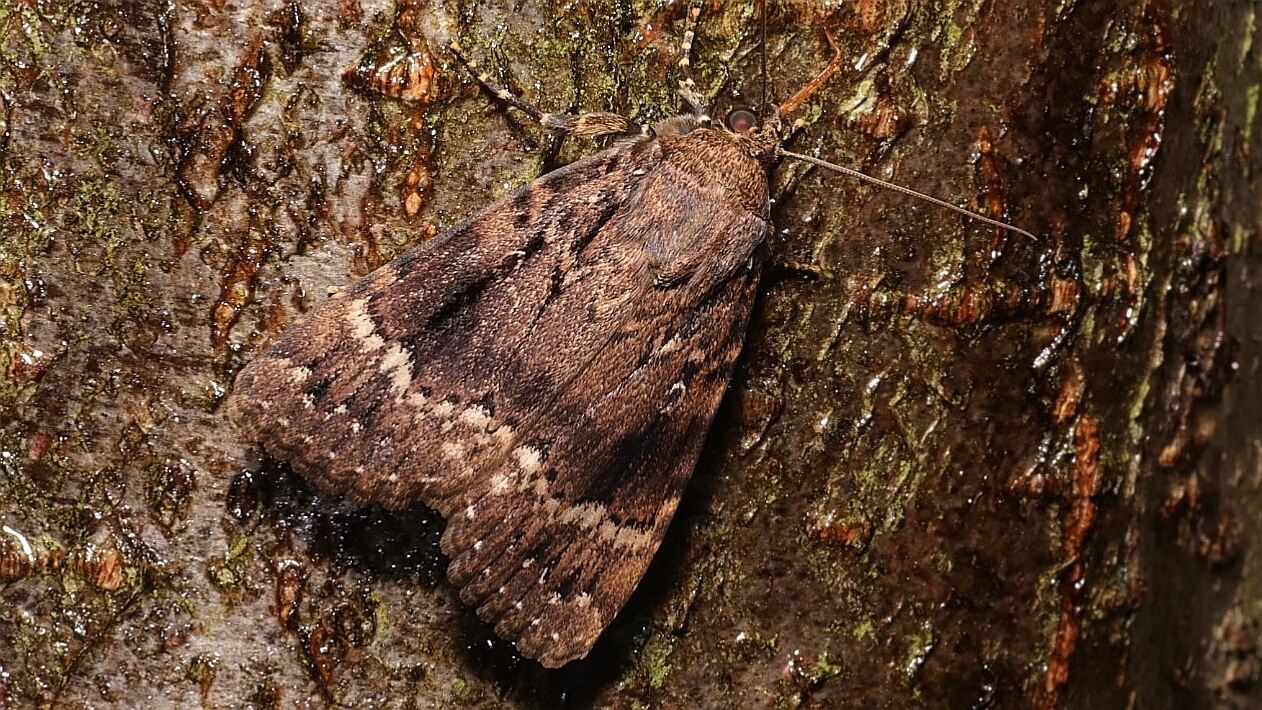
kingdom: Animalia
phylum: Arthropoda
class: Insecta
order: Lepidoptera
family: Noctuidae
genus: Amphipyra
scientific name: Amphipyra pyramidea
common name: Copper underwing
